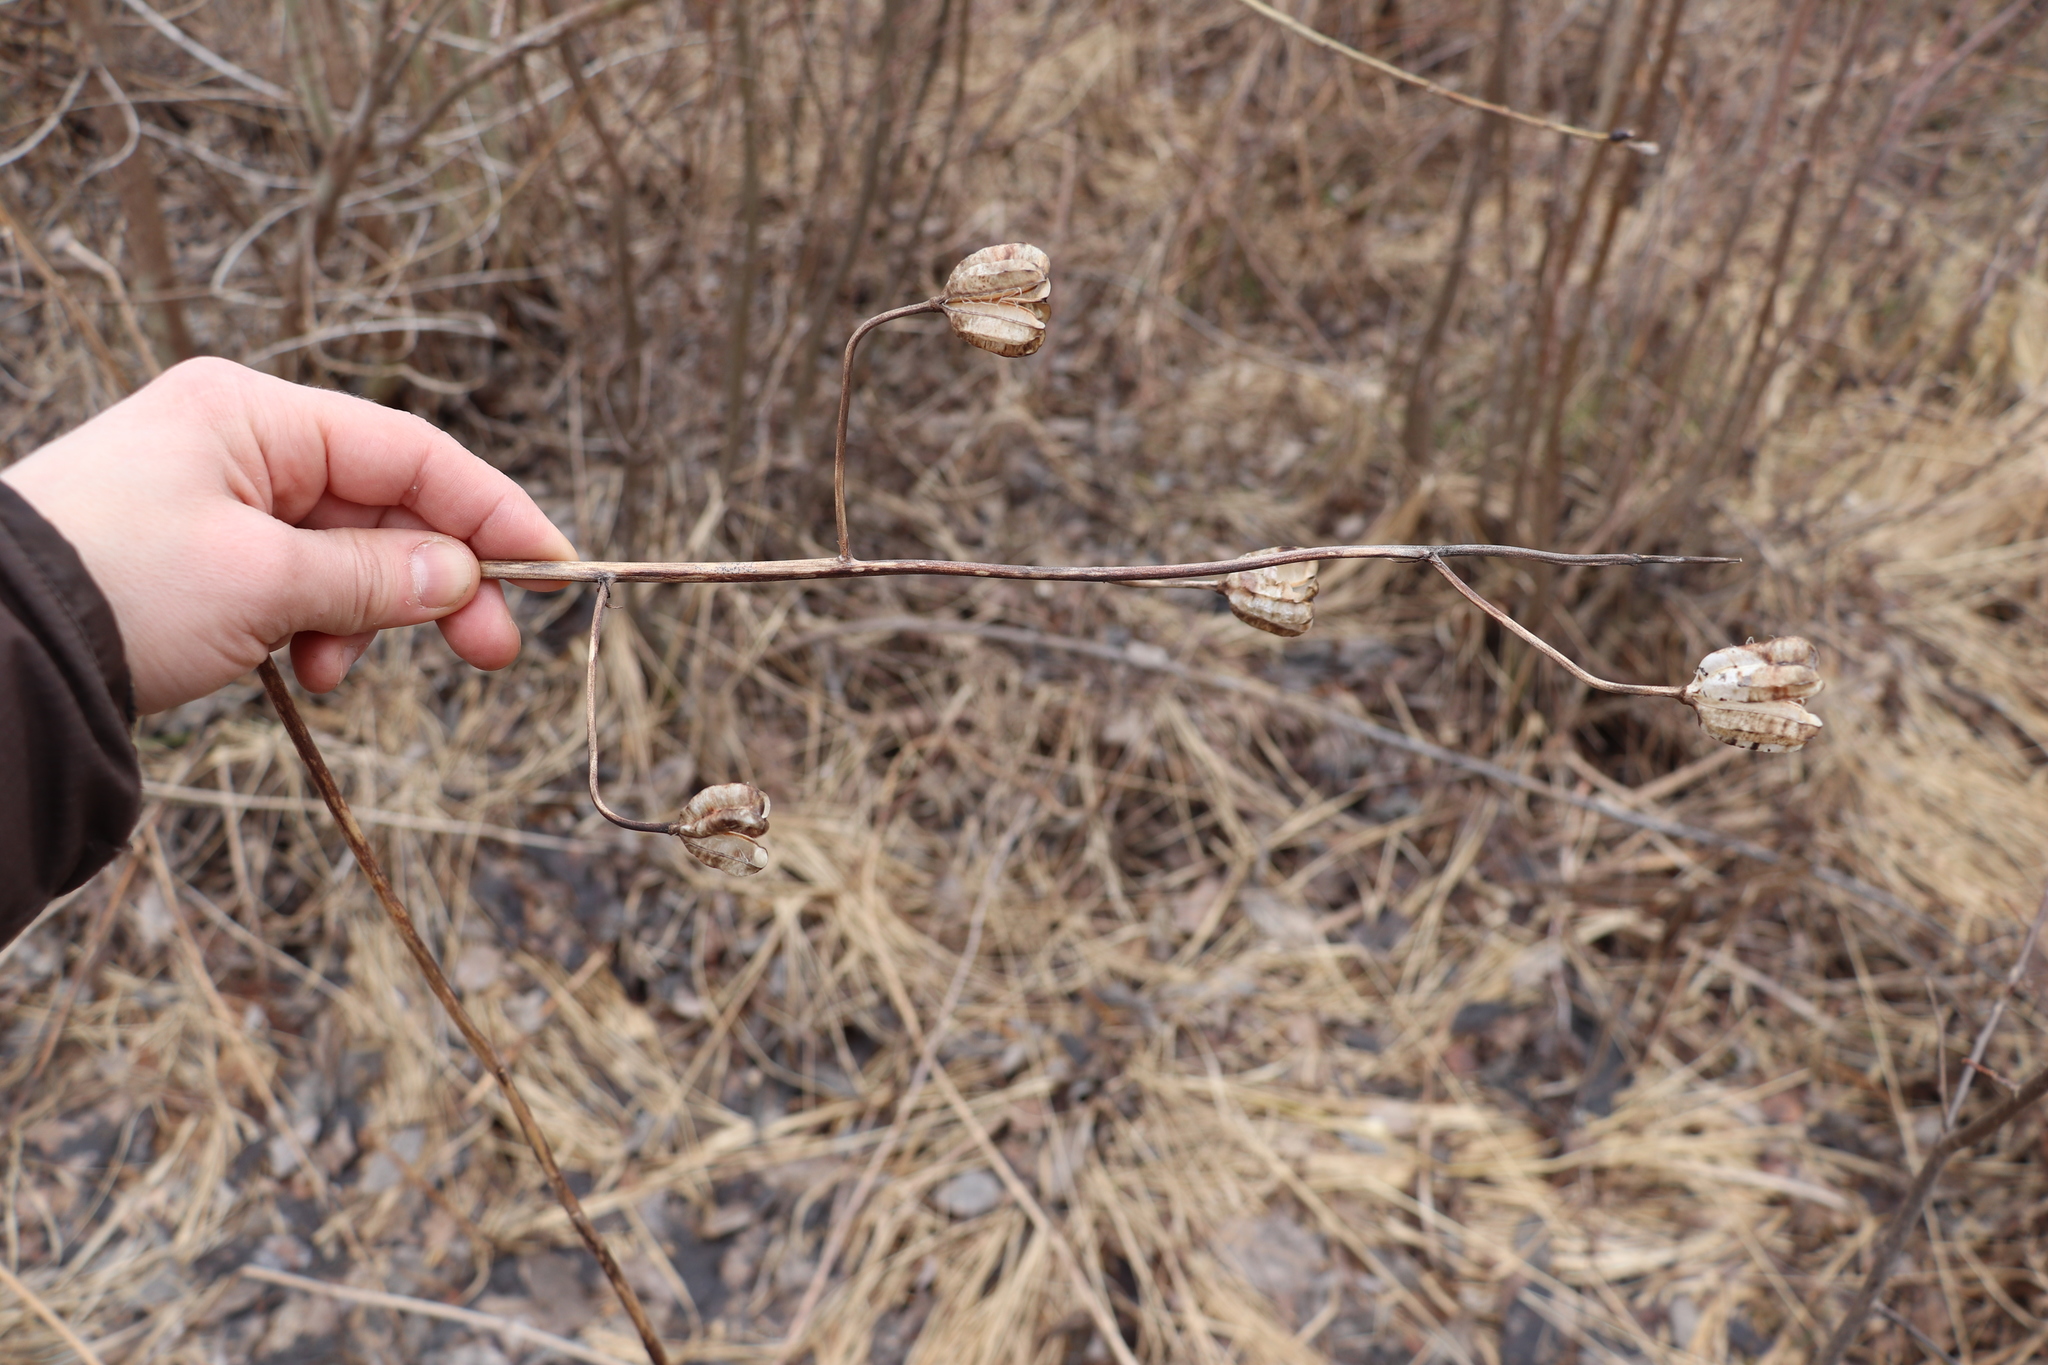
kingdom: Plantae
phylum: Tracheophyta
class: Liliopsida
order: Liliales
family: Liliaceae
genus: Lilium
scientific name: Lilium martagon
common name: Martagon lily
